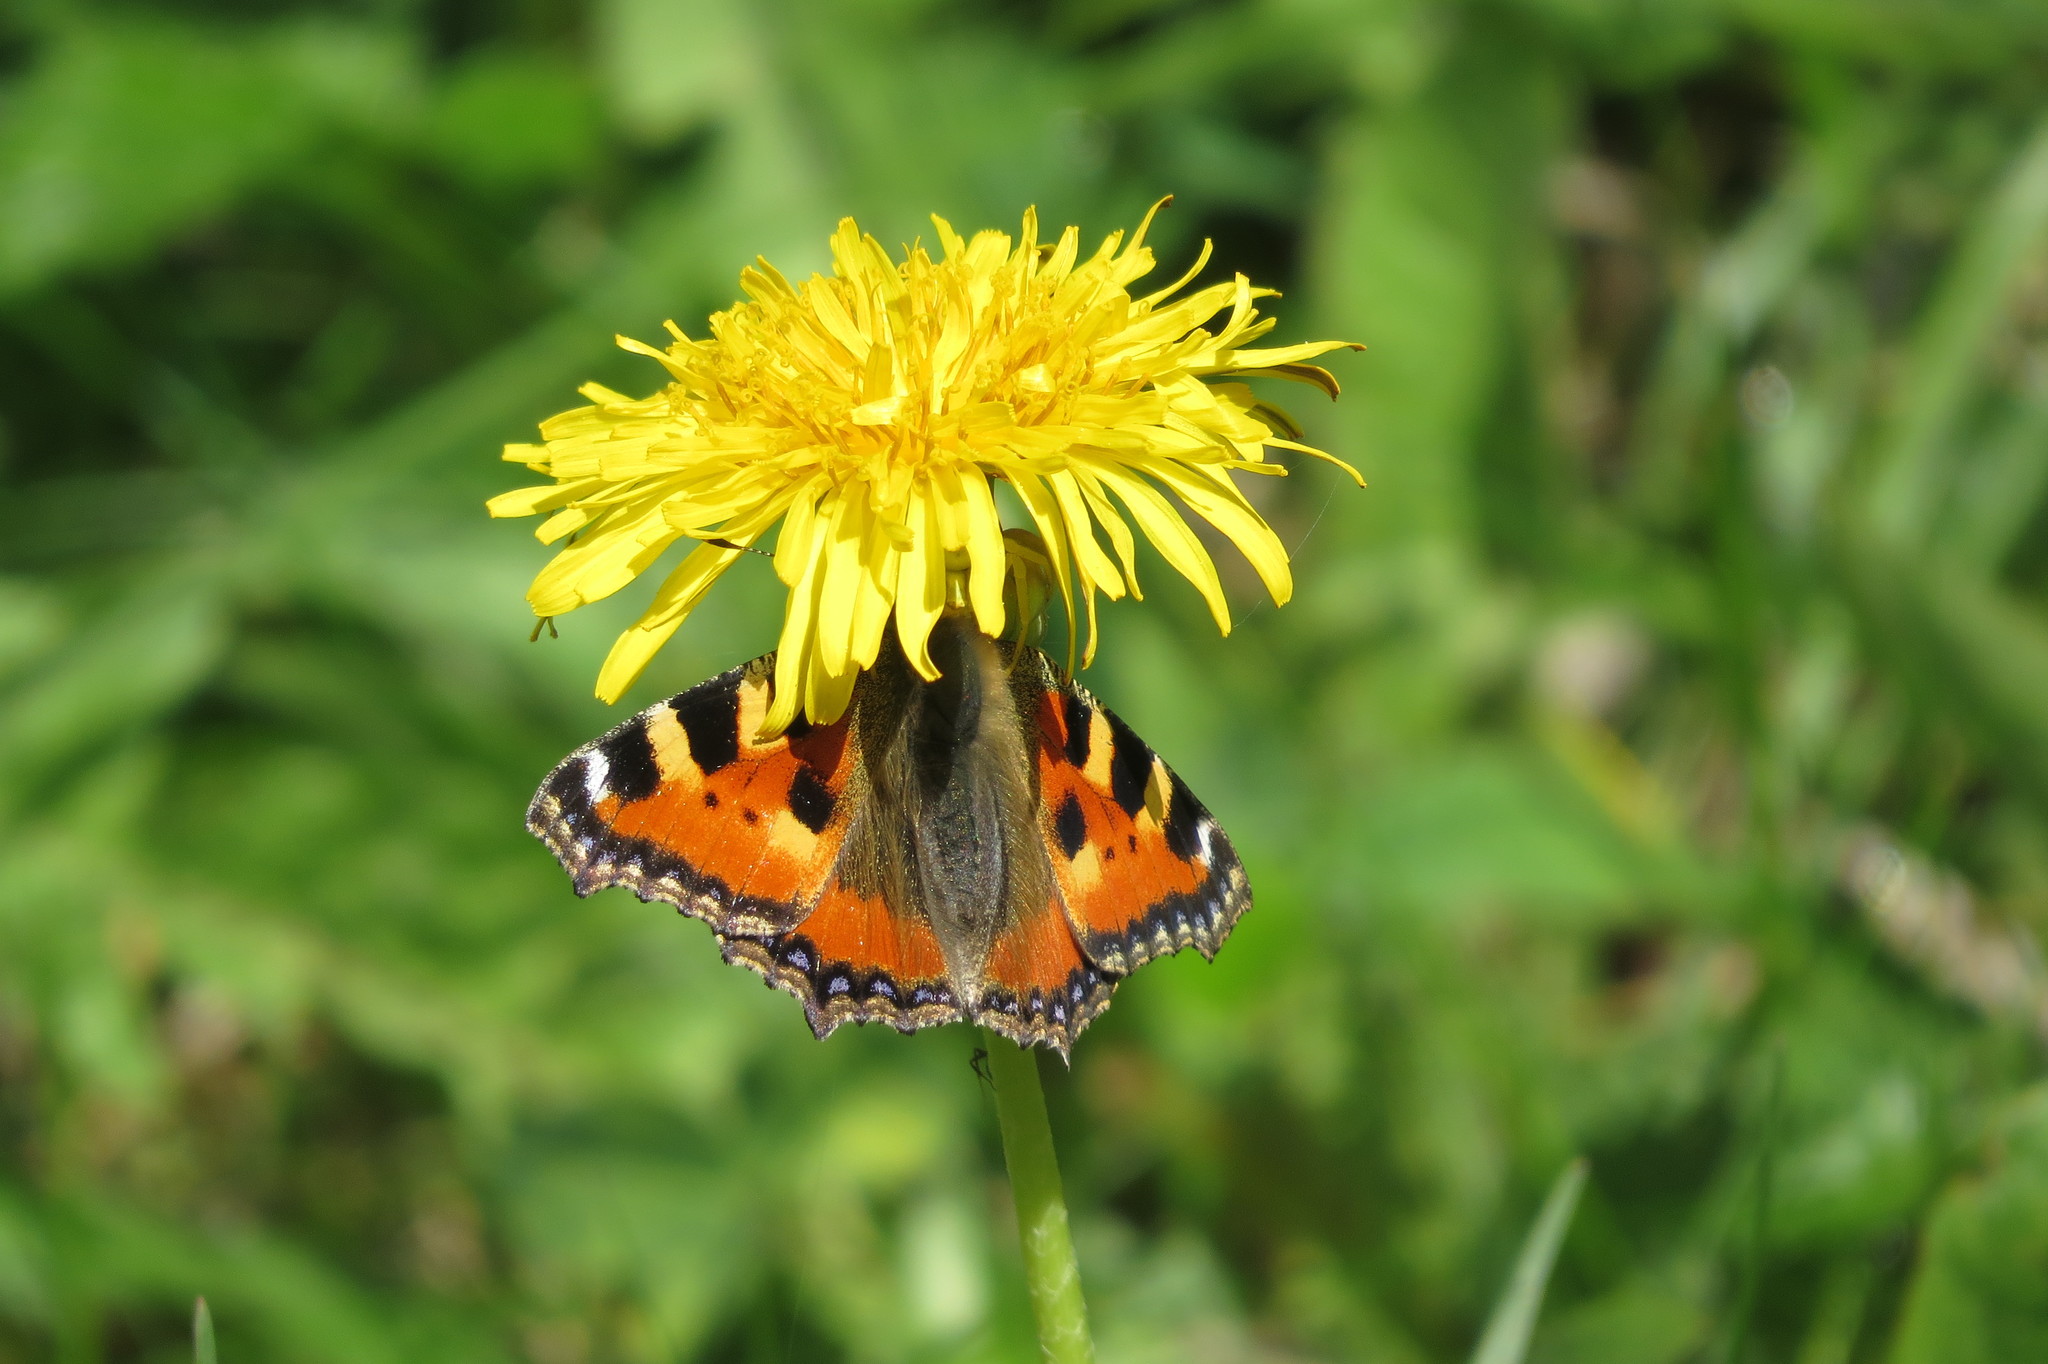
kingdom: Animalia
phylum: Arthropoda
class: Insecta
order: Lepidoptera
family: Nymphalidae
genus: Aglais
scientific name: Aglais urticae
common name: Small tortoiseshell
